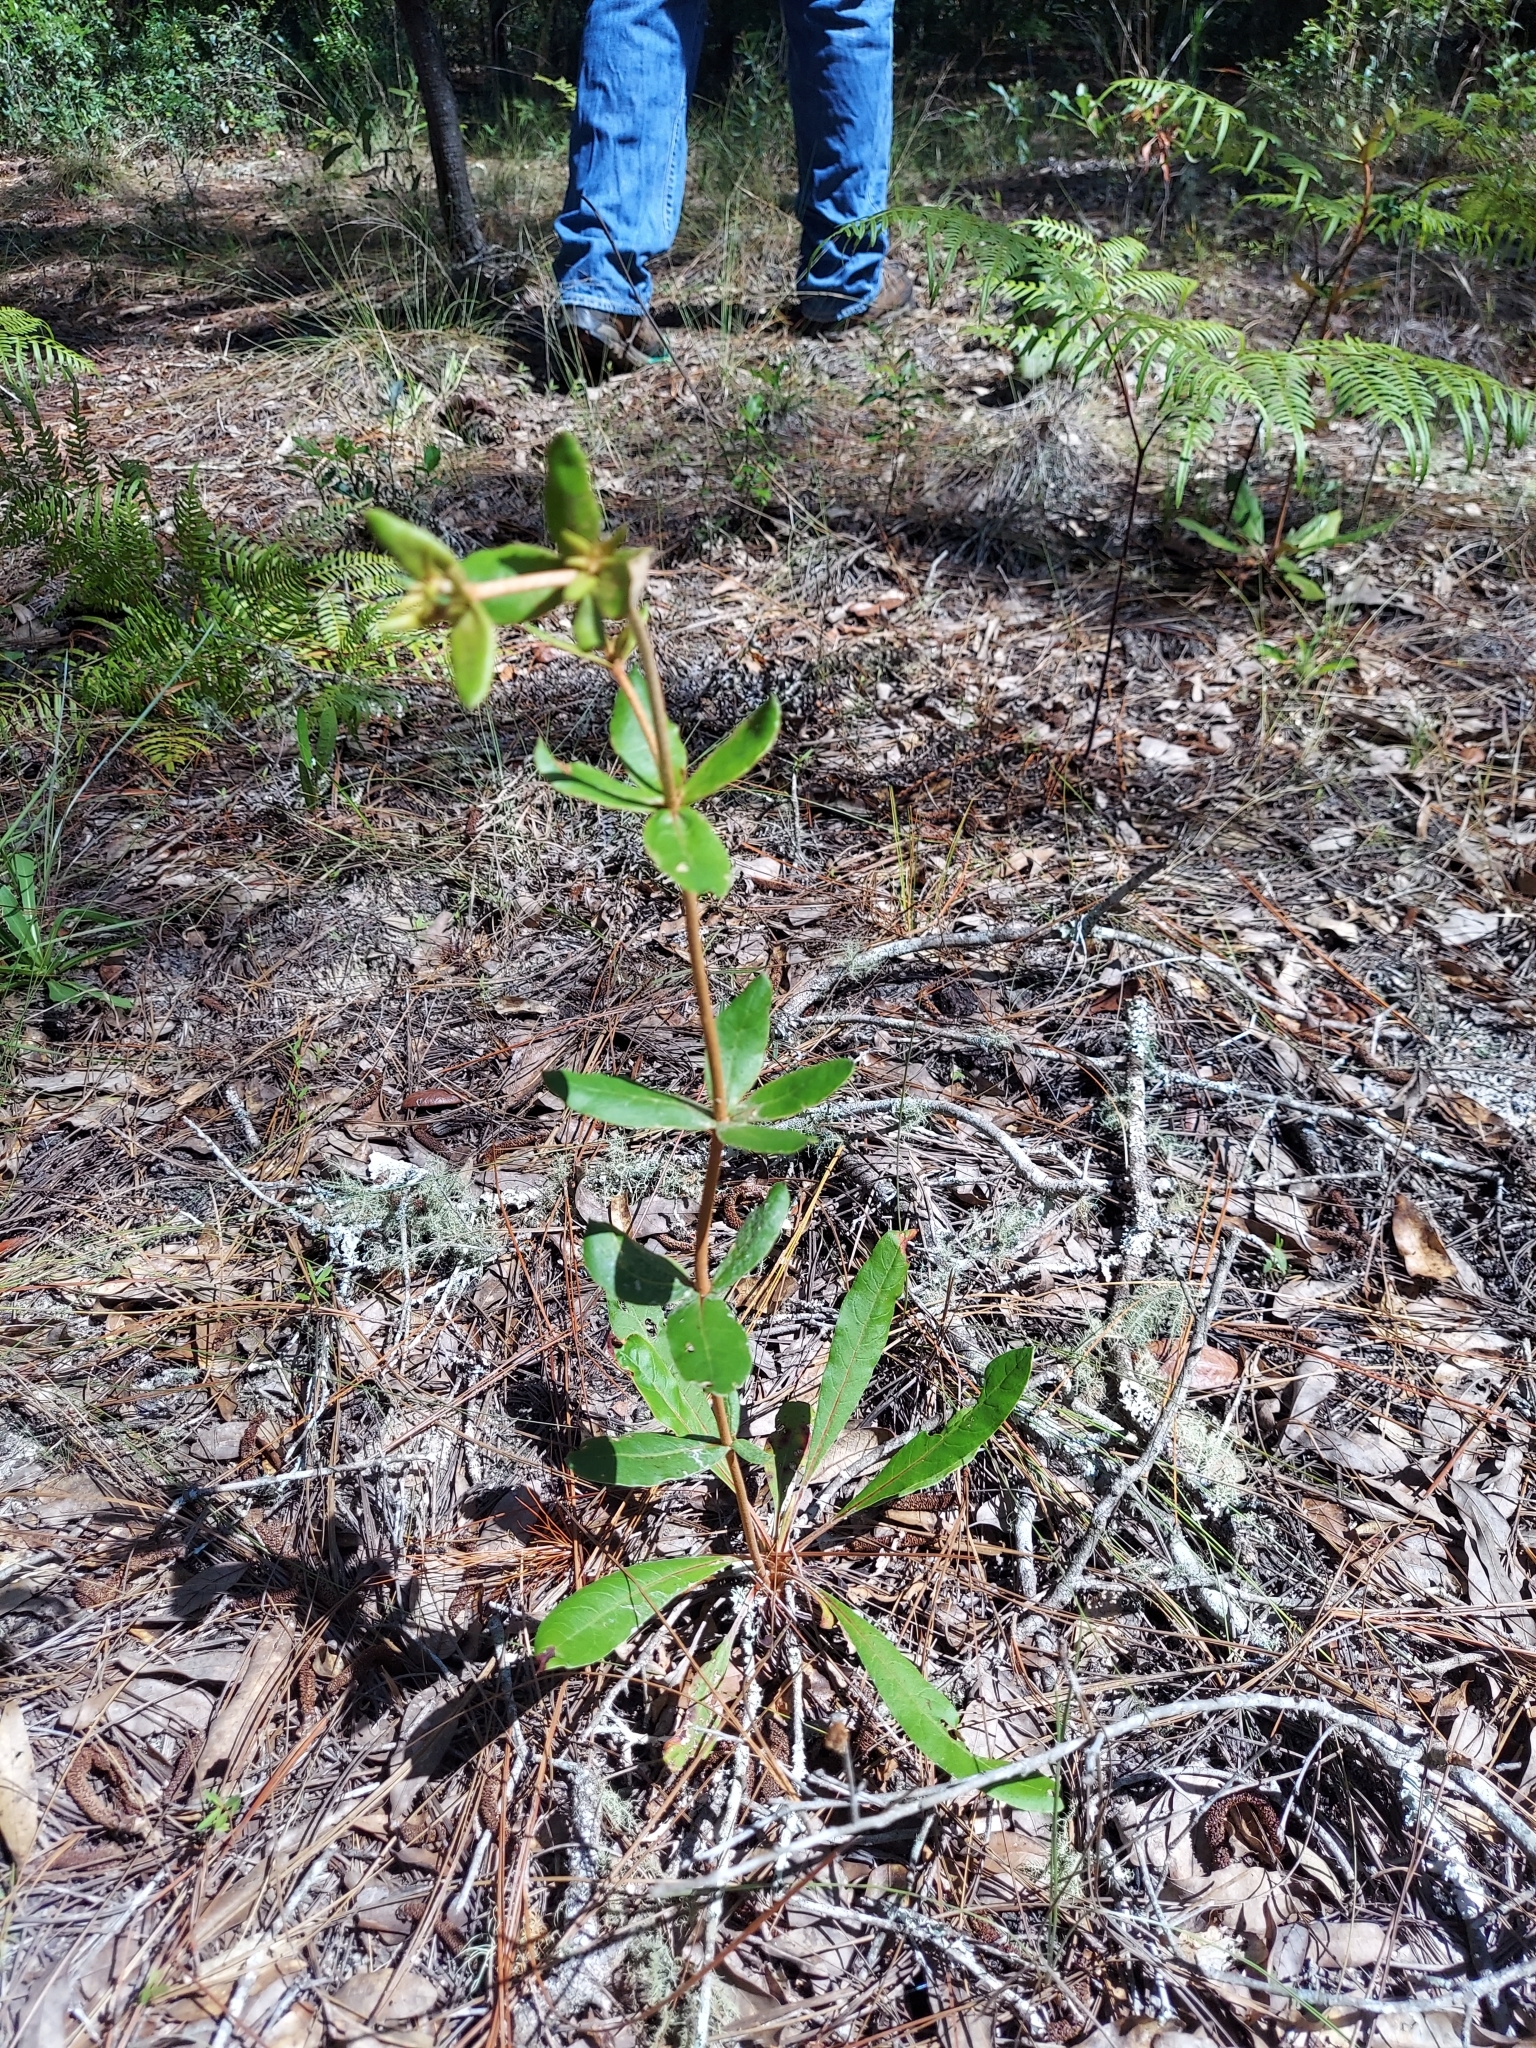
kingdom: Plantae
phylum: Tracheophyta
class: Magnoliopsida
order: Caryophyllales
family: Polygonaceae
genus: Eriogonum
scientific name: Eriogonum tomentosum
